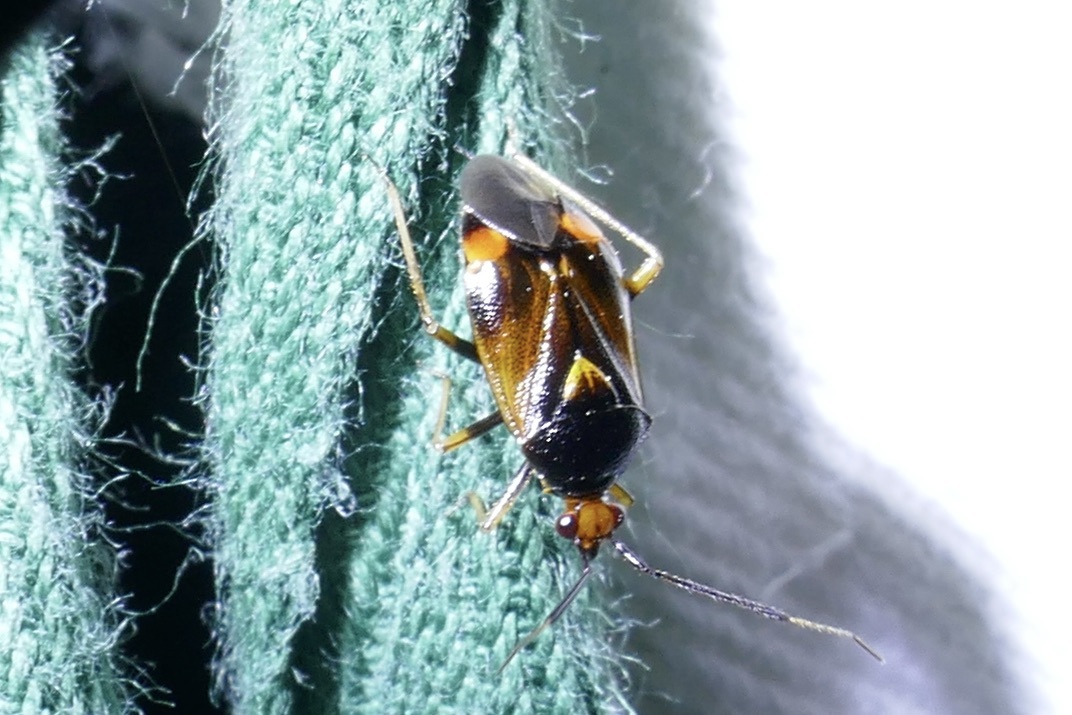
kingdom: Animalia
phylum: Arthropoda
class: Insecta
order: Hemiptera
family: Miridae
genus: Deraeocoris
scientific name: Deraeocoris ruber
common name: Plant bug
